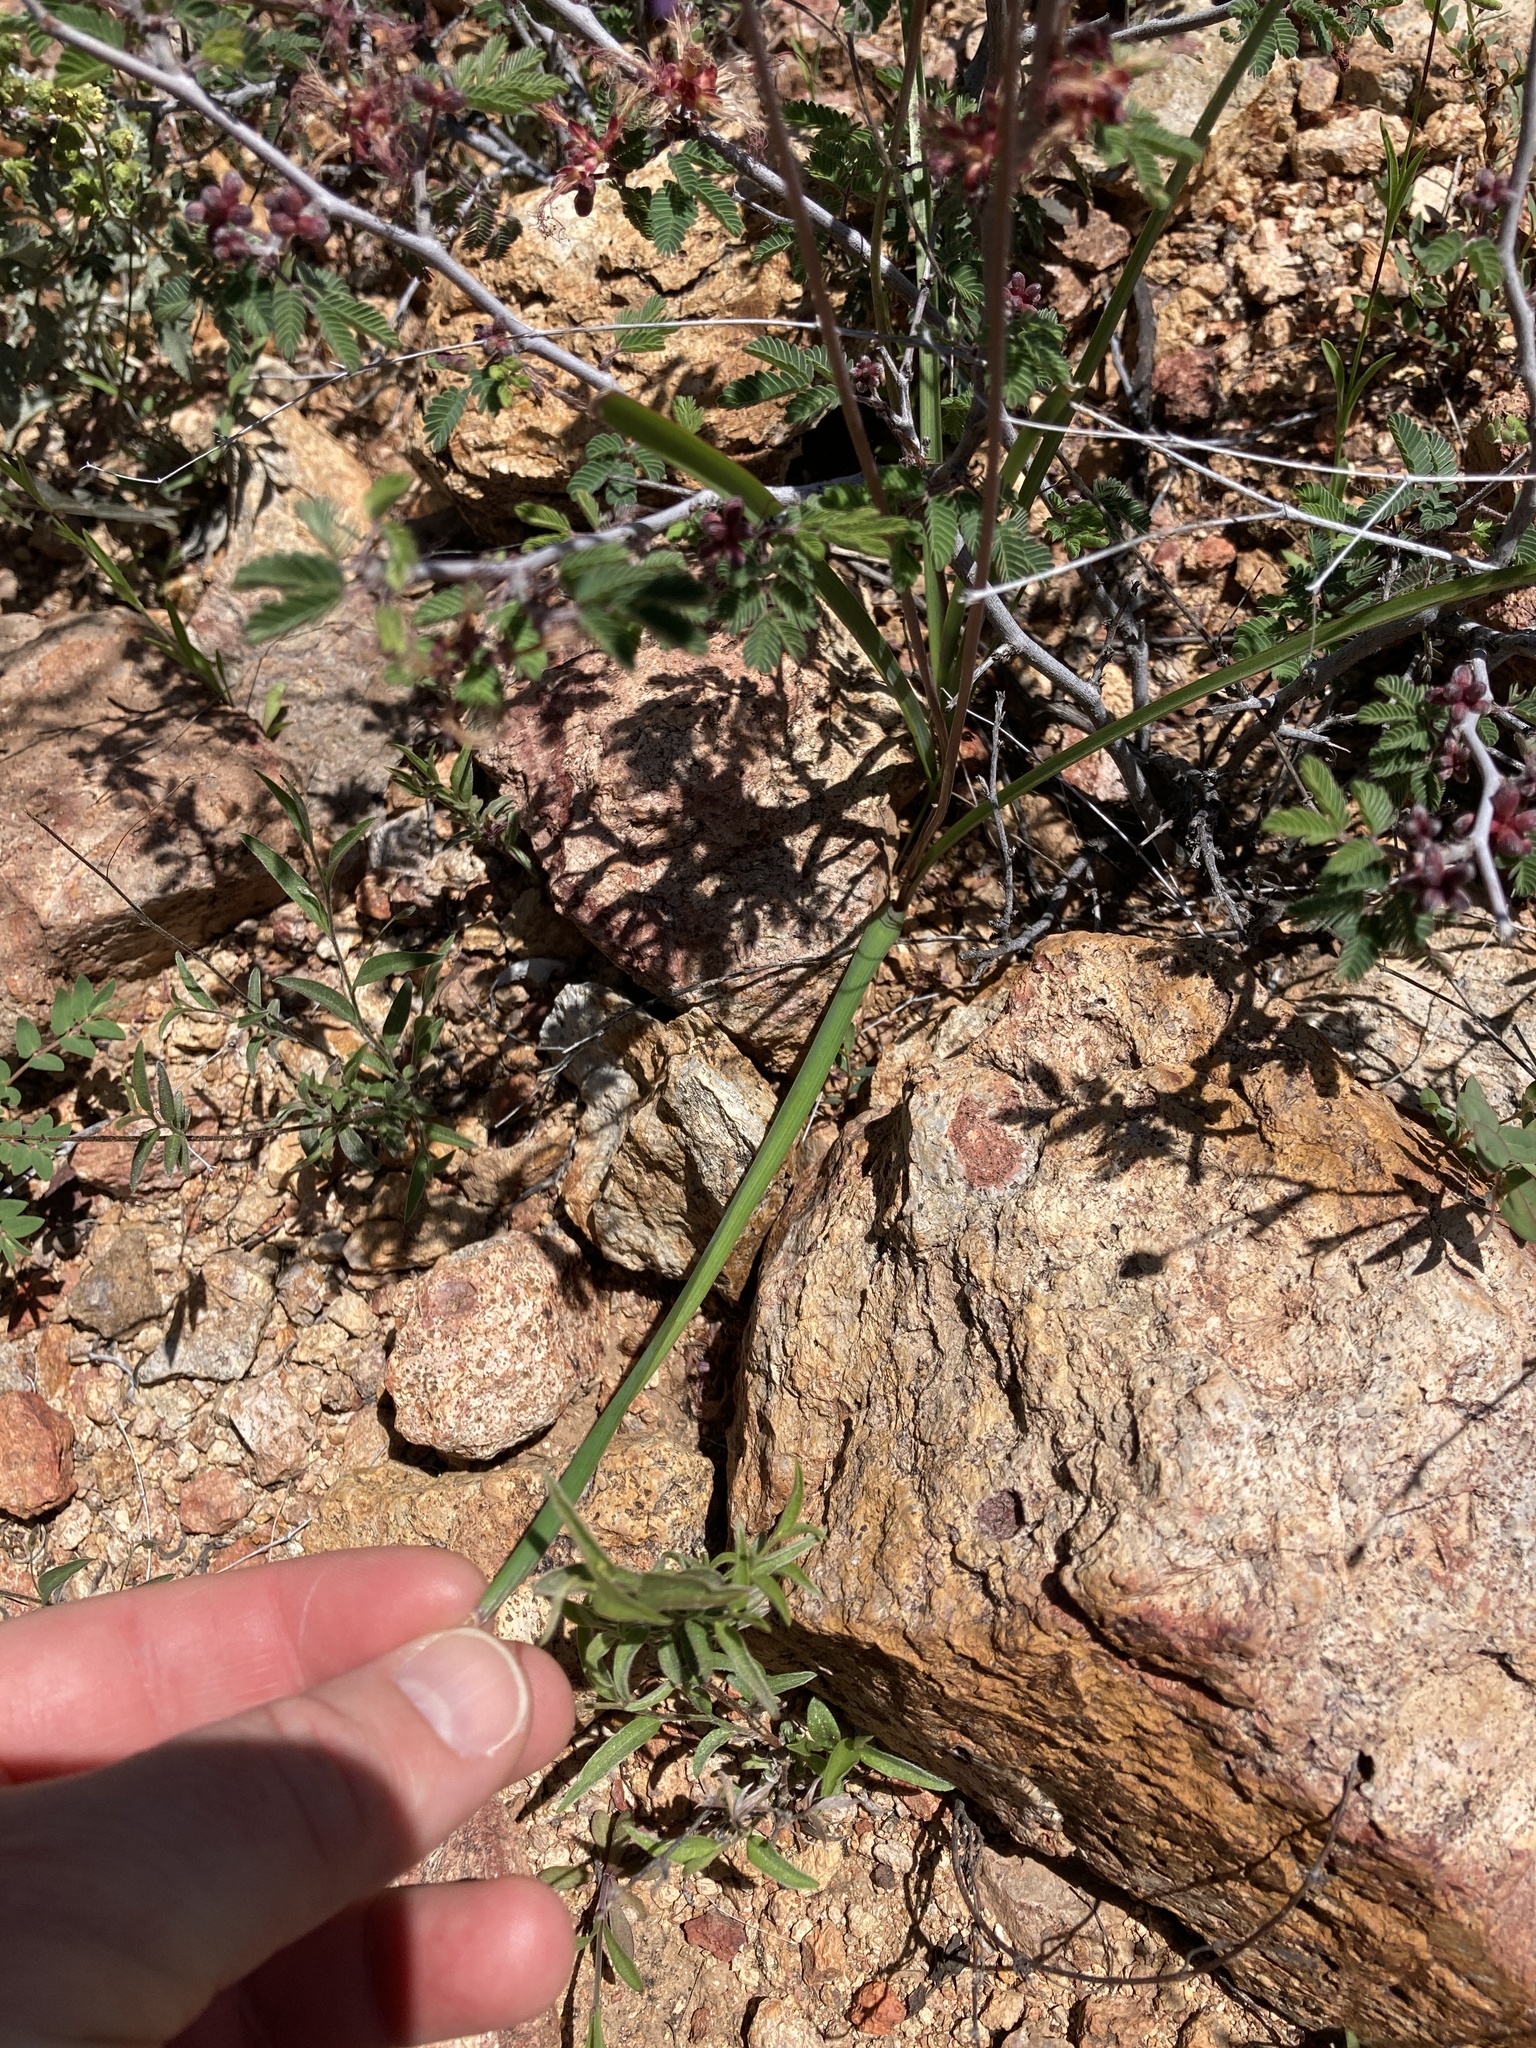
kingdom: Plantae
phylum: Tracheophyta
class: Liliopsida
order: Asparagales
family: Asparagaceae
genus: Dipterostemon
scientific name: Dipterostemon capitatus
